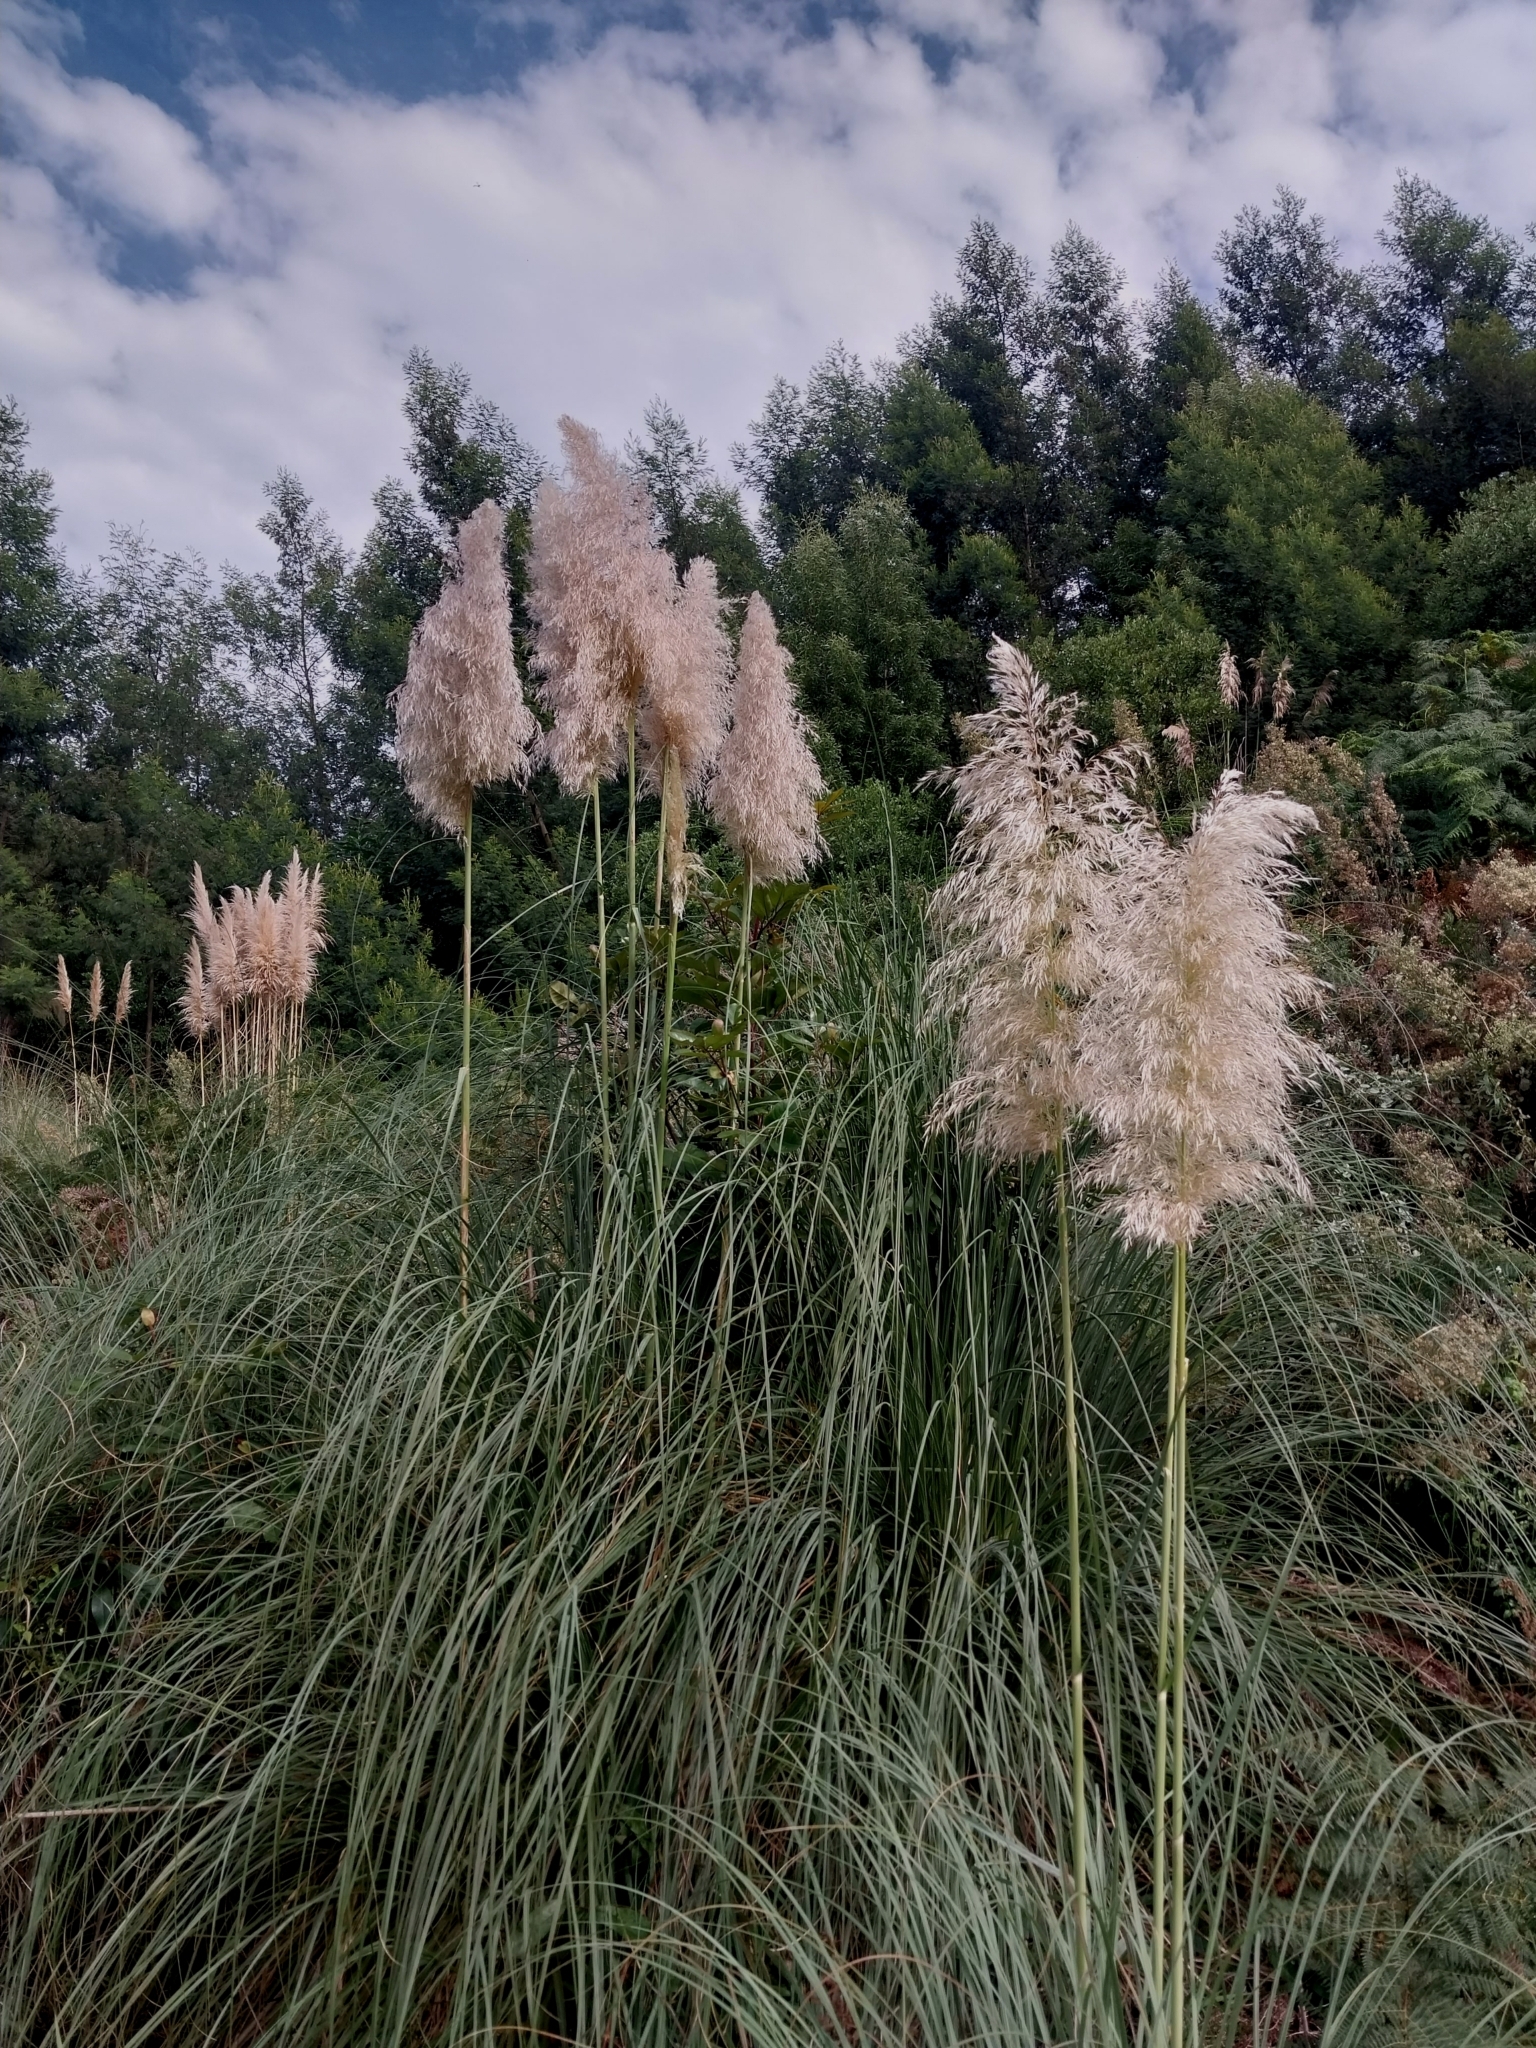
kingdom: Plantae
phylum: Tracheophyta
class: Liliopsida
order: Poales
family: Poaceae
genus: Cortaderia
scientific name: Cortaderia selloana
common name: Uruguayan pampas grass
